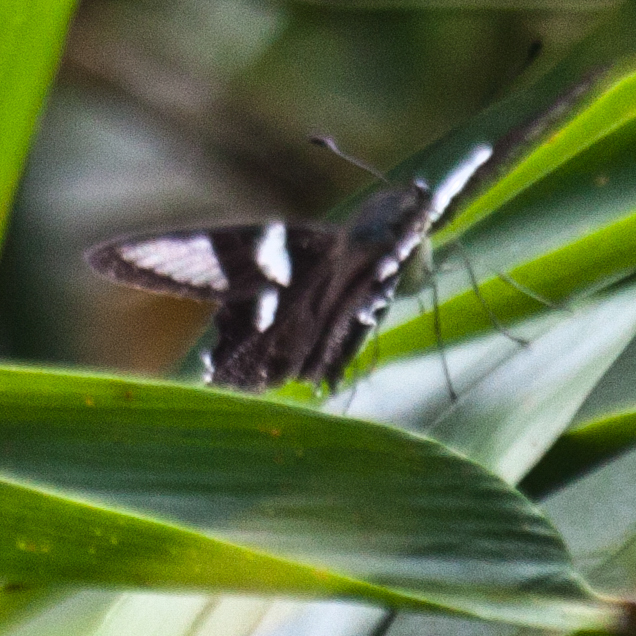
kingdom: Animalia
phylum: Arthropoda
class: Insecta
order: Lepidoptera
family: Papilionidae
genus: Lamproptera
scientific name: Lamproptera curius
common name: White dragontail
